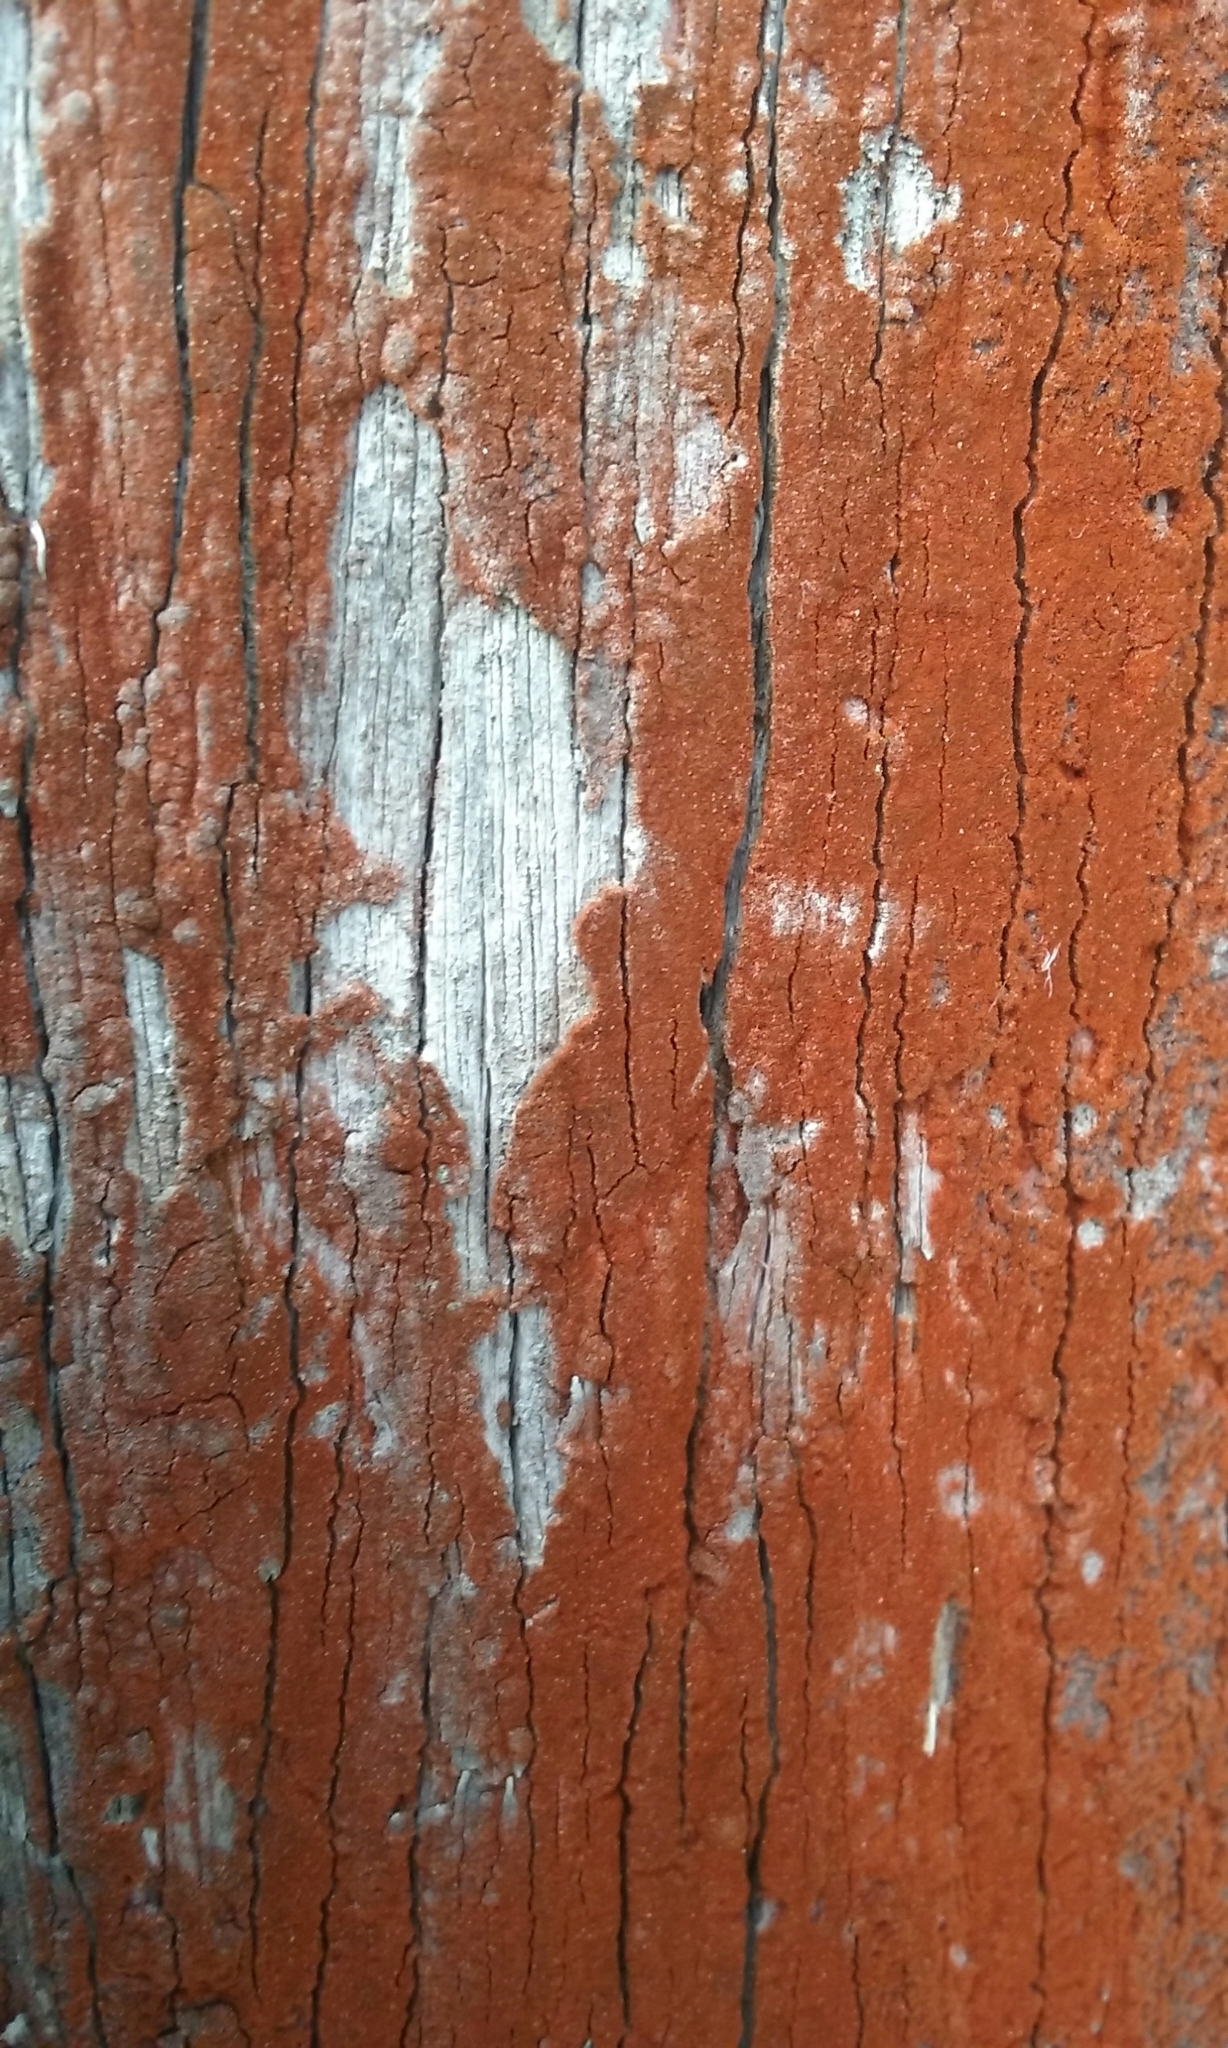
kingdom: Plantae
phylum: Chlorophyta
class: Ulvophyceae
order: Trentepohliales
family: Trentepohliaceae
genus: Trentepohlia
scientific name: Trentepohlia aurea
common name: Orange rock hair
